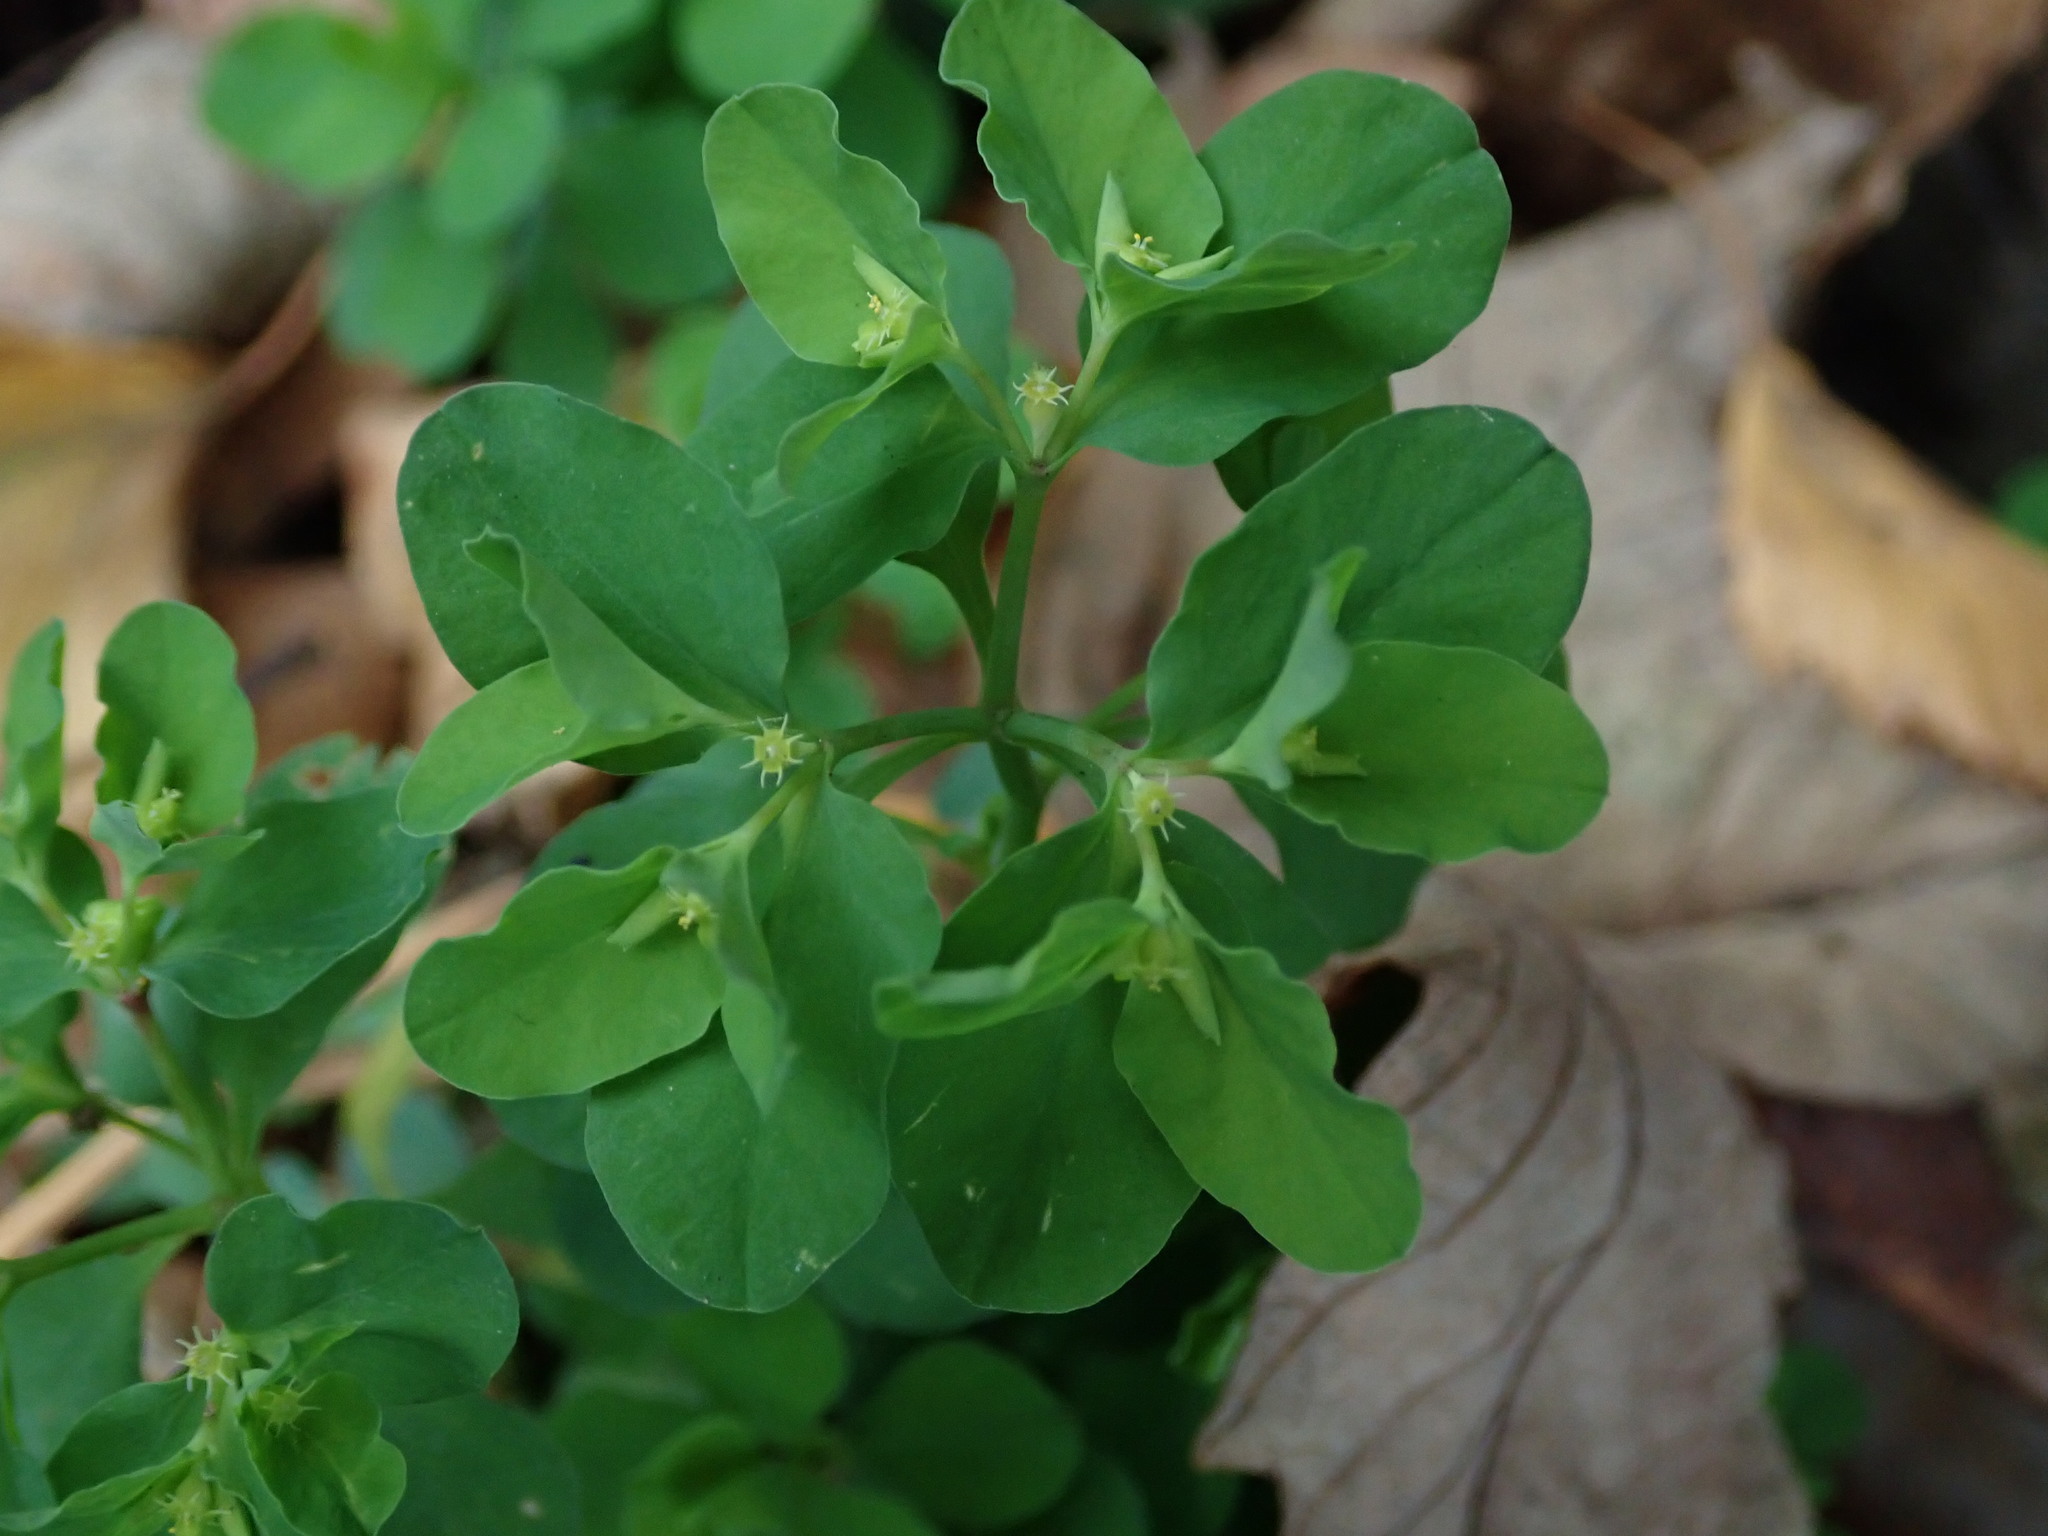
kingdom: Plantae
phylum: Tracheophyta
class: Magnoliopsida
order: Malpighiales
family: Euphorbiaceae
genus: Euphorbia
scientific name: Euphorbia peplus
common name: Petty spurge
